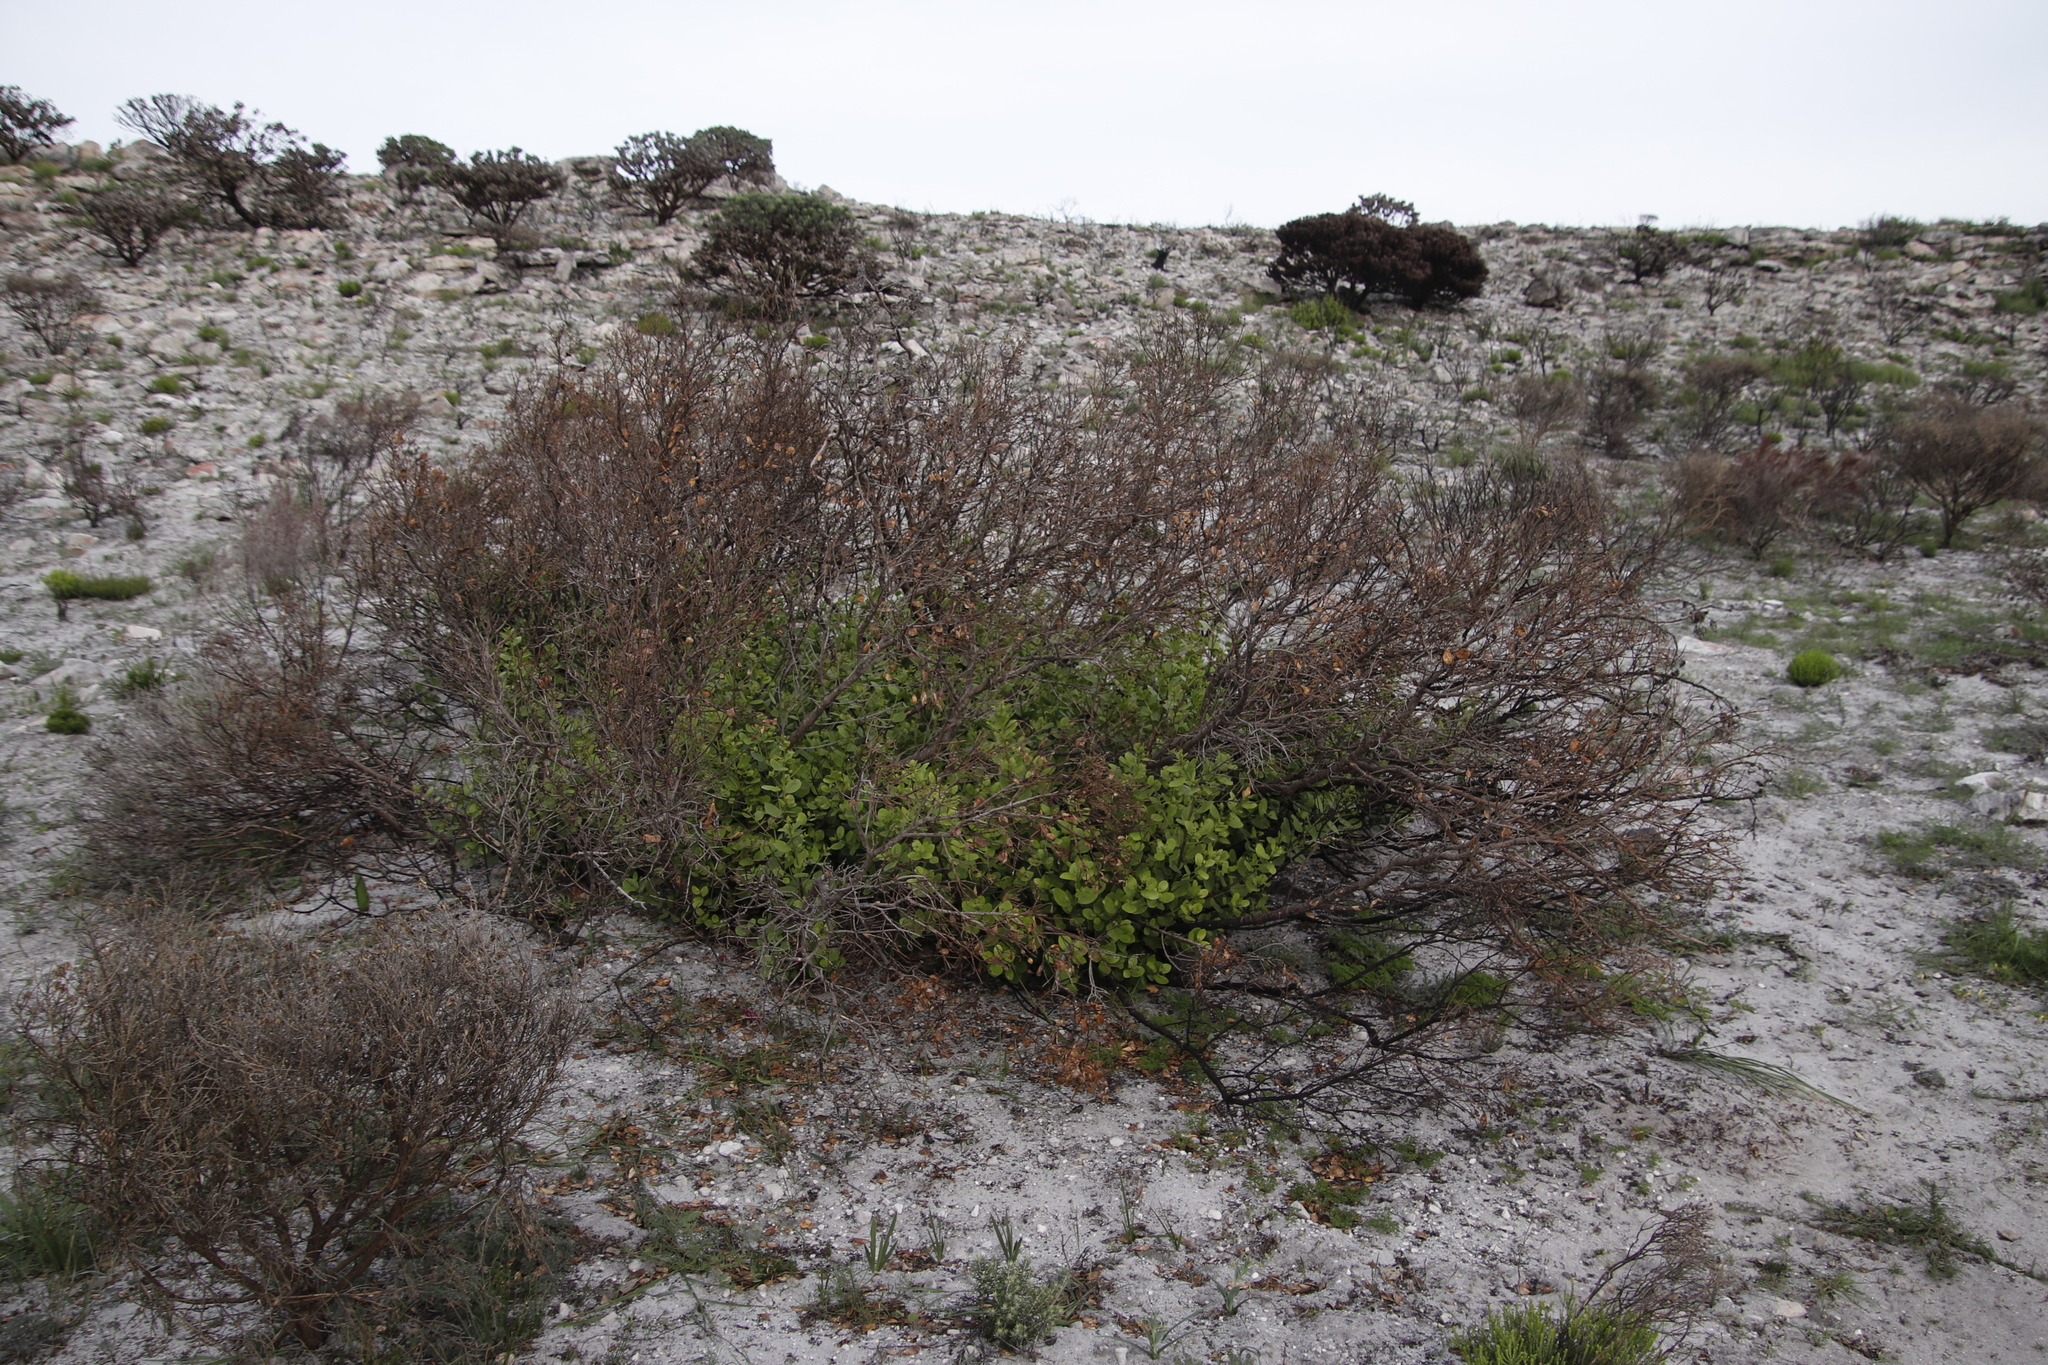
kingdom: Plantae
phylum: Tracheophyta
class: Magnoliopsida
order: Lamiales
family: Oleaceae
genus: Olea
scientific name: Olea capensis
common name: Black ironwood
